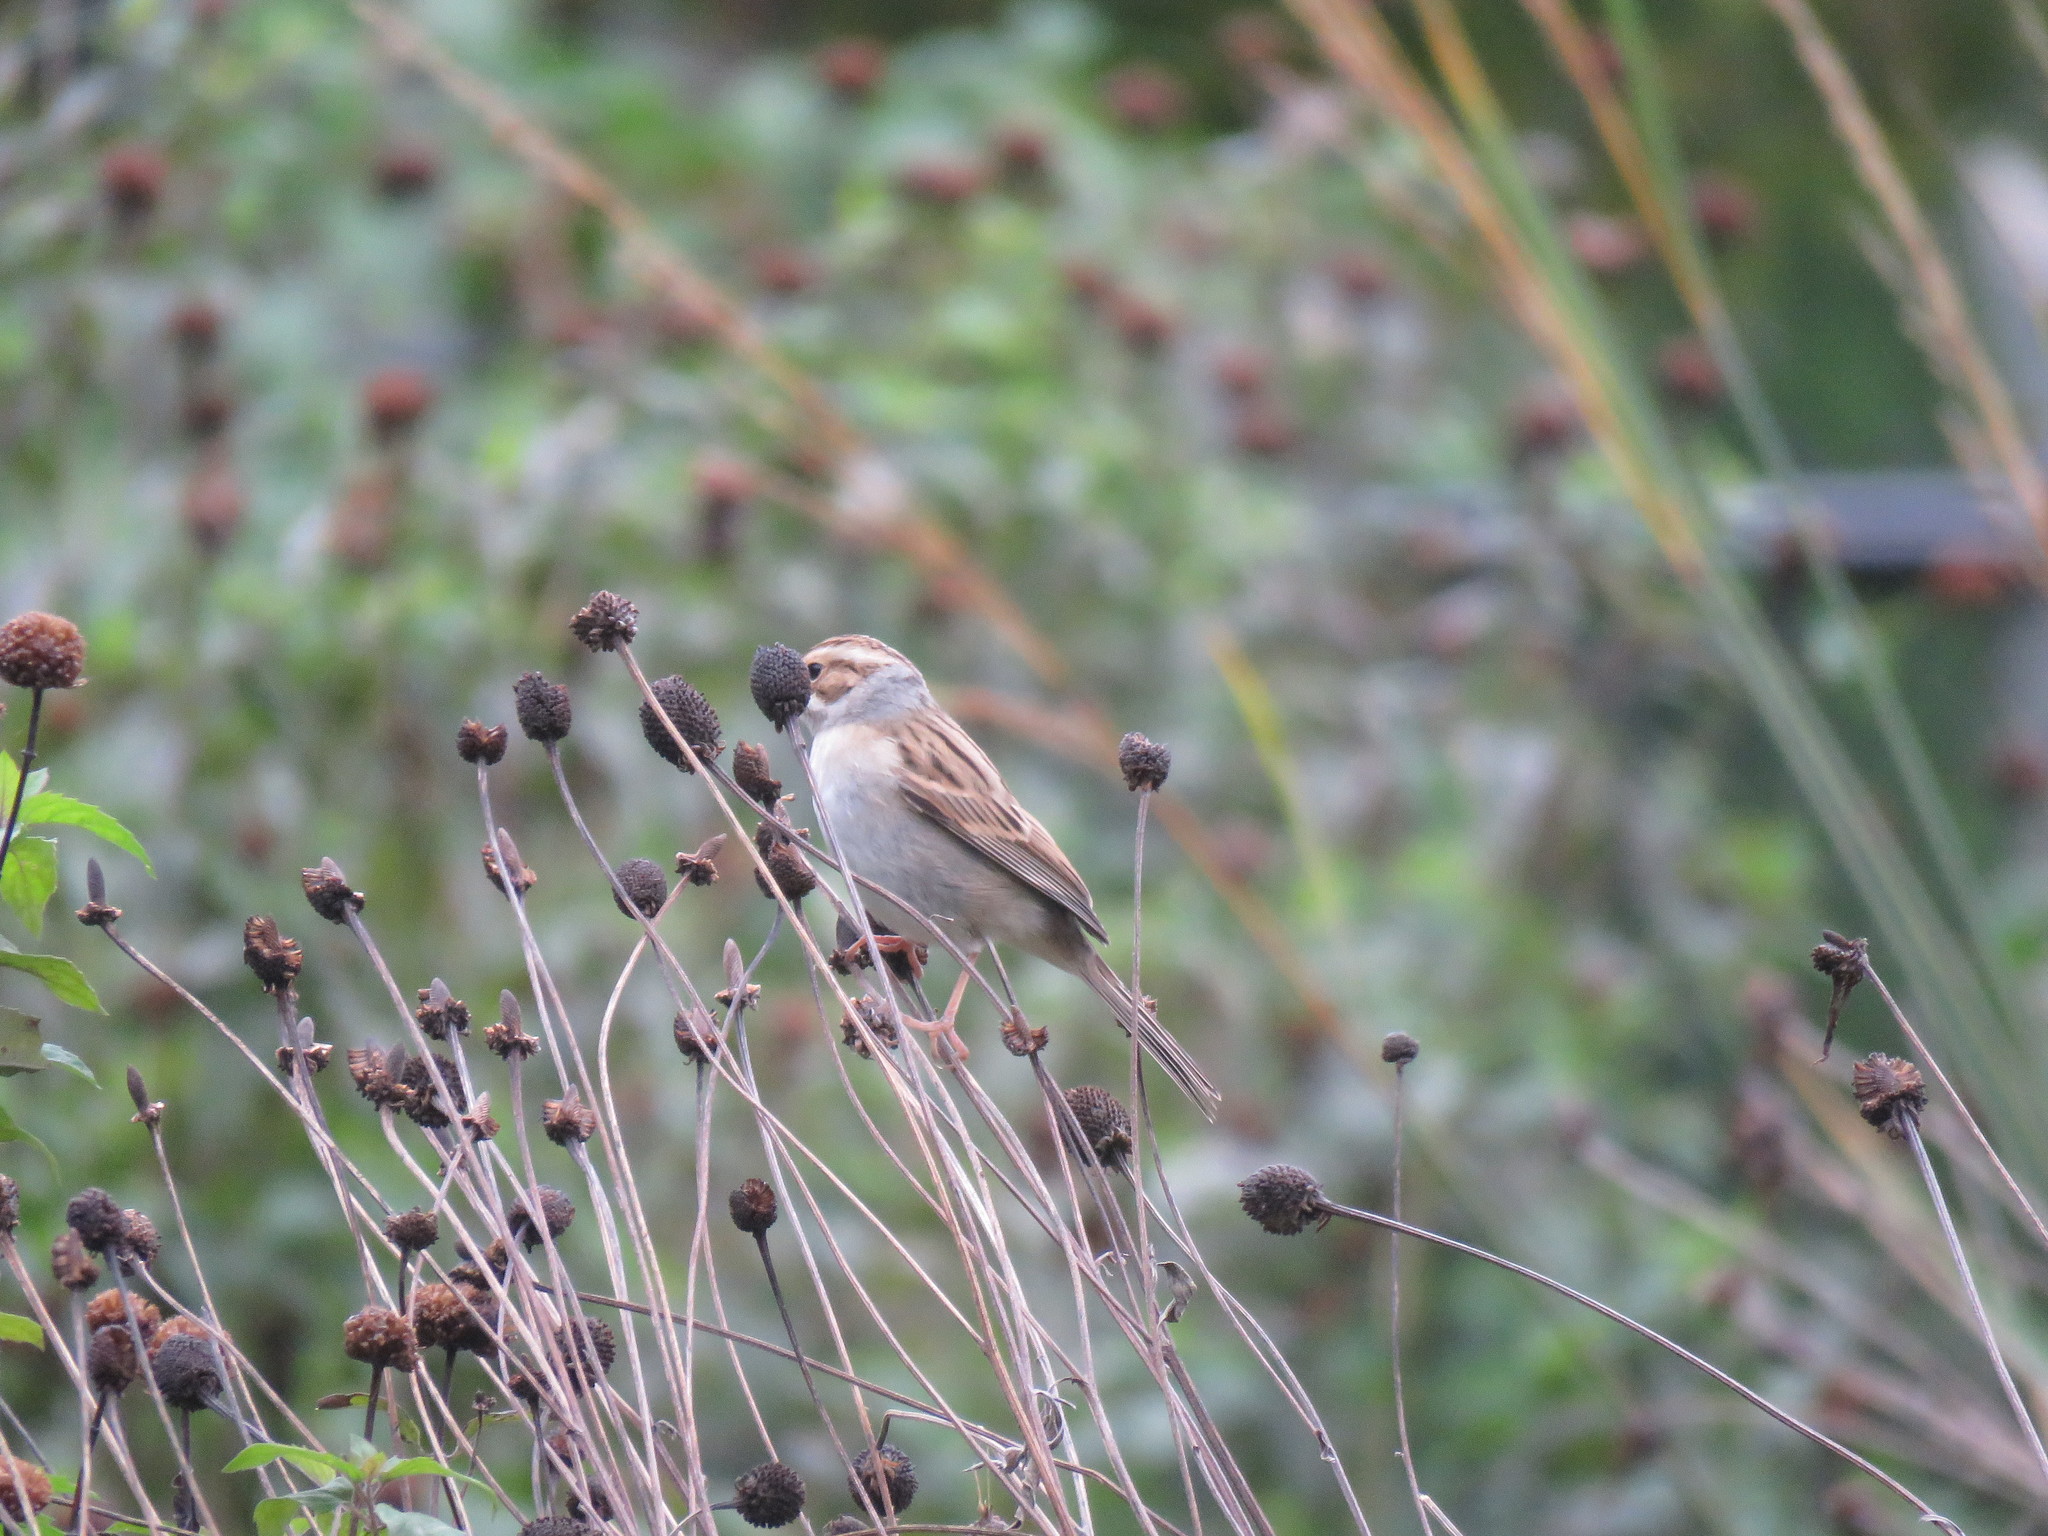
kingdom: Animalia
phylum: Chordata
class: Aves
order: Passeriformes
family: Passerellidae
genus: Spizella
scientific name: Spizella pallida
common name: Clay-colored sparrow
